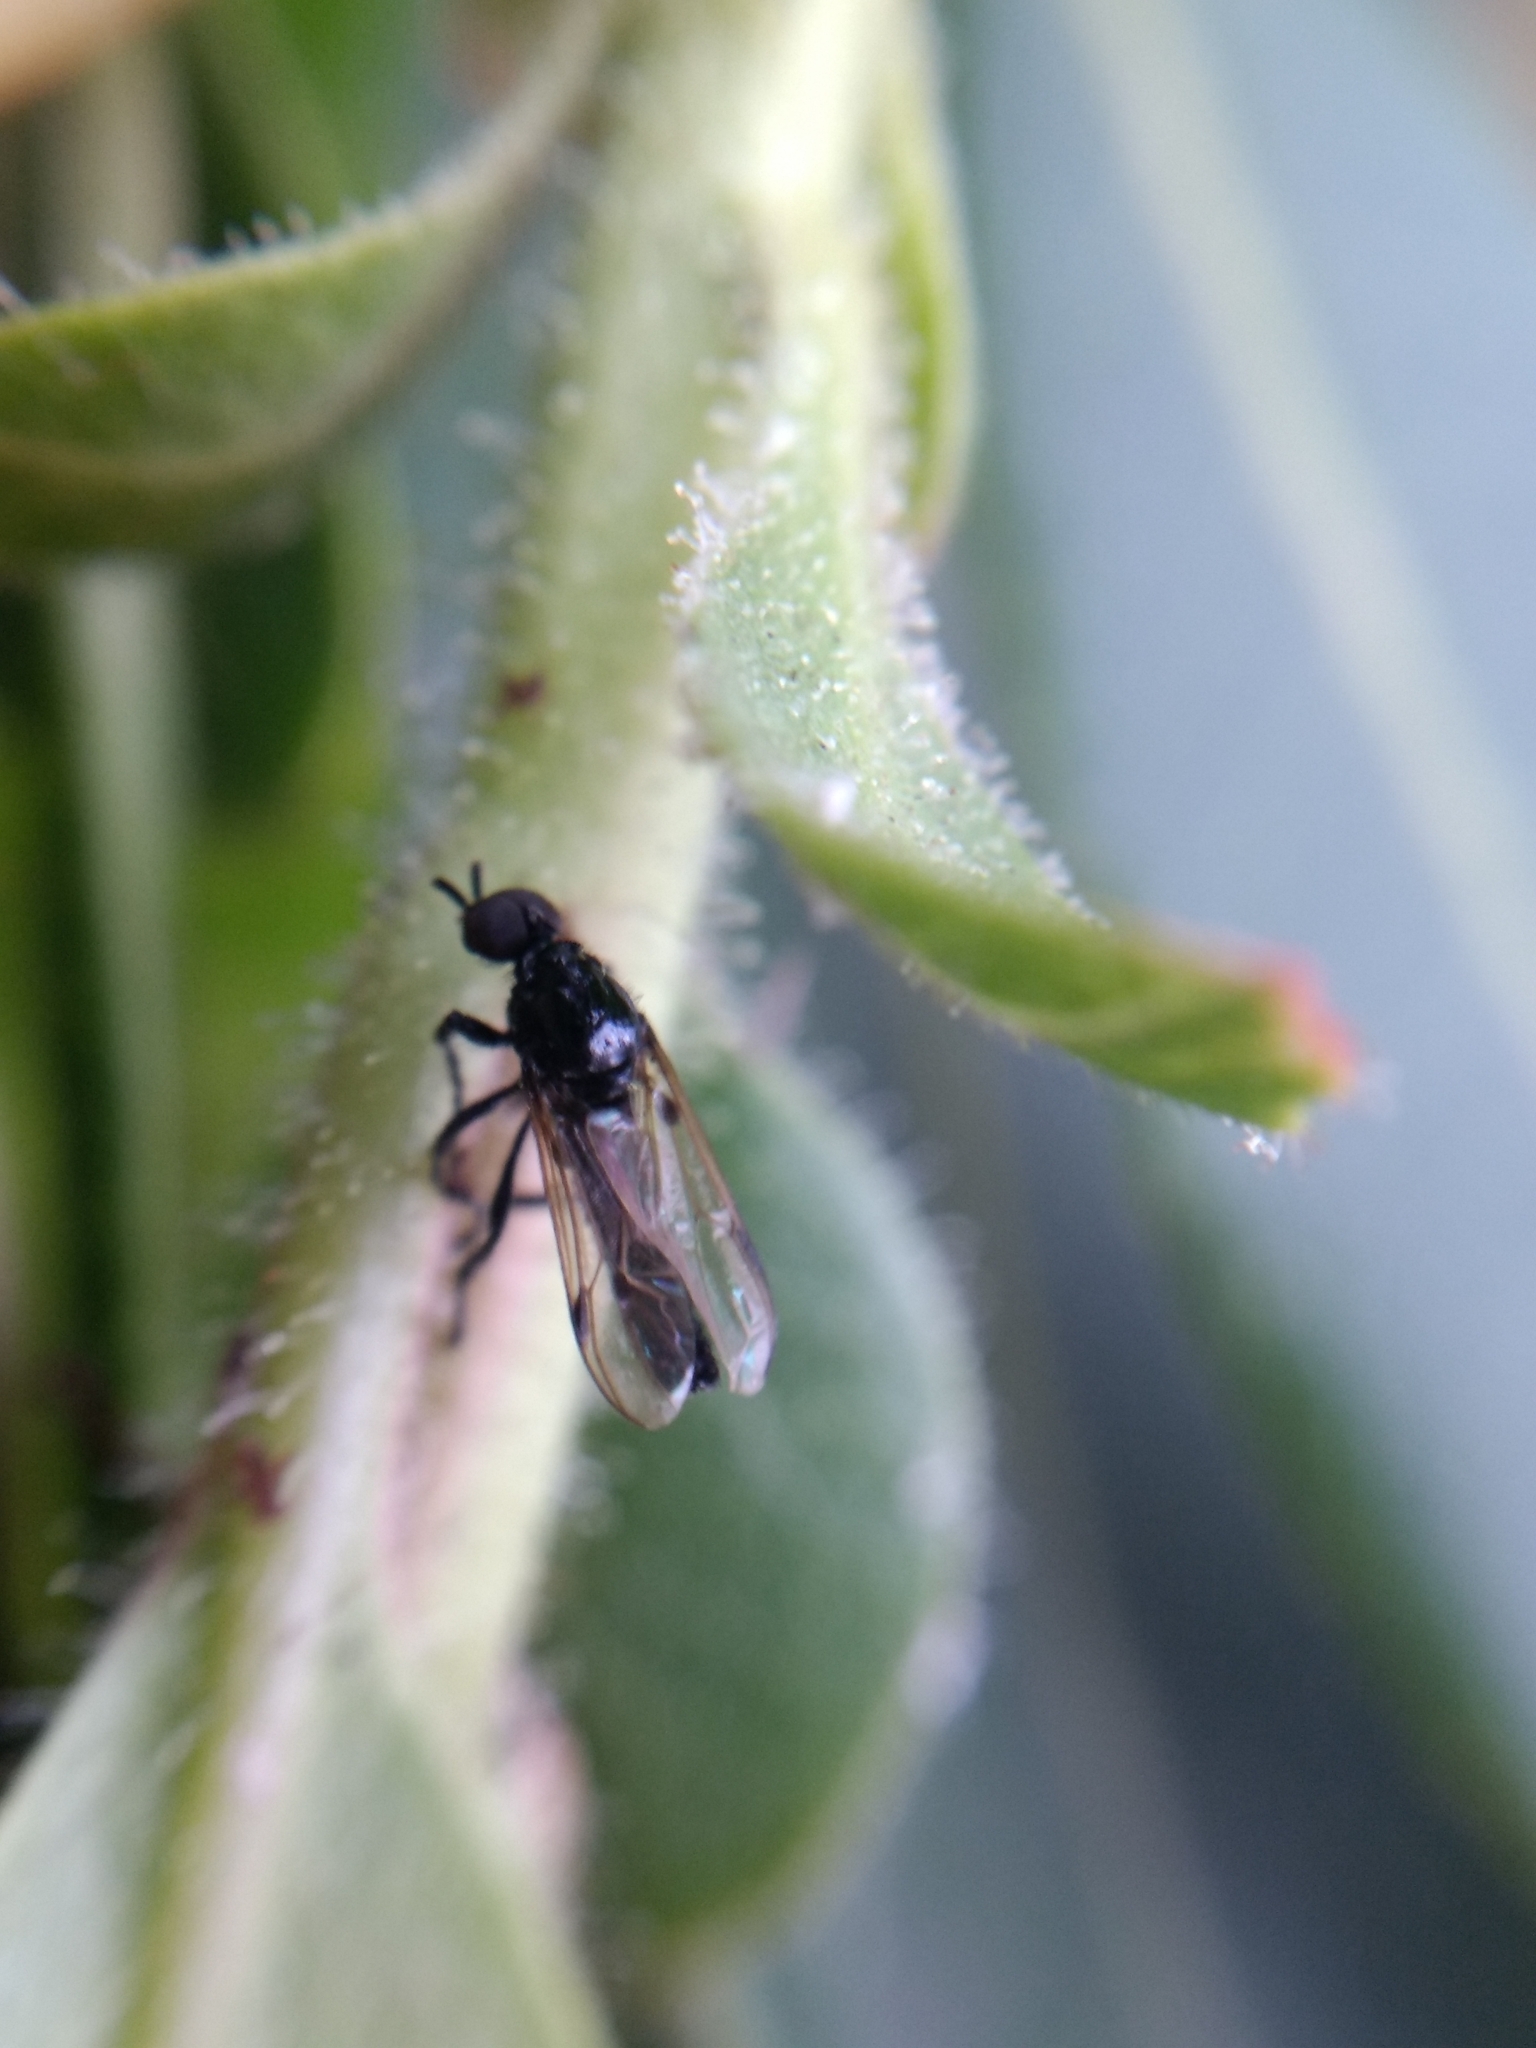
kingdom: Animalia
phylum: Arthropoda
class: Insecta
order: Diptera
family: Bibionidae
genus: Dilophus
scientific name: Dilophus
